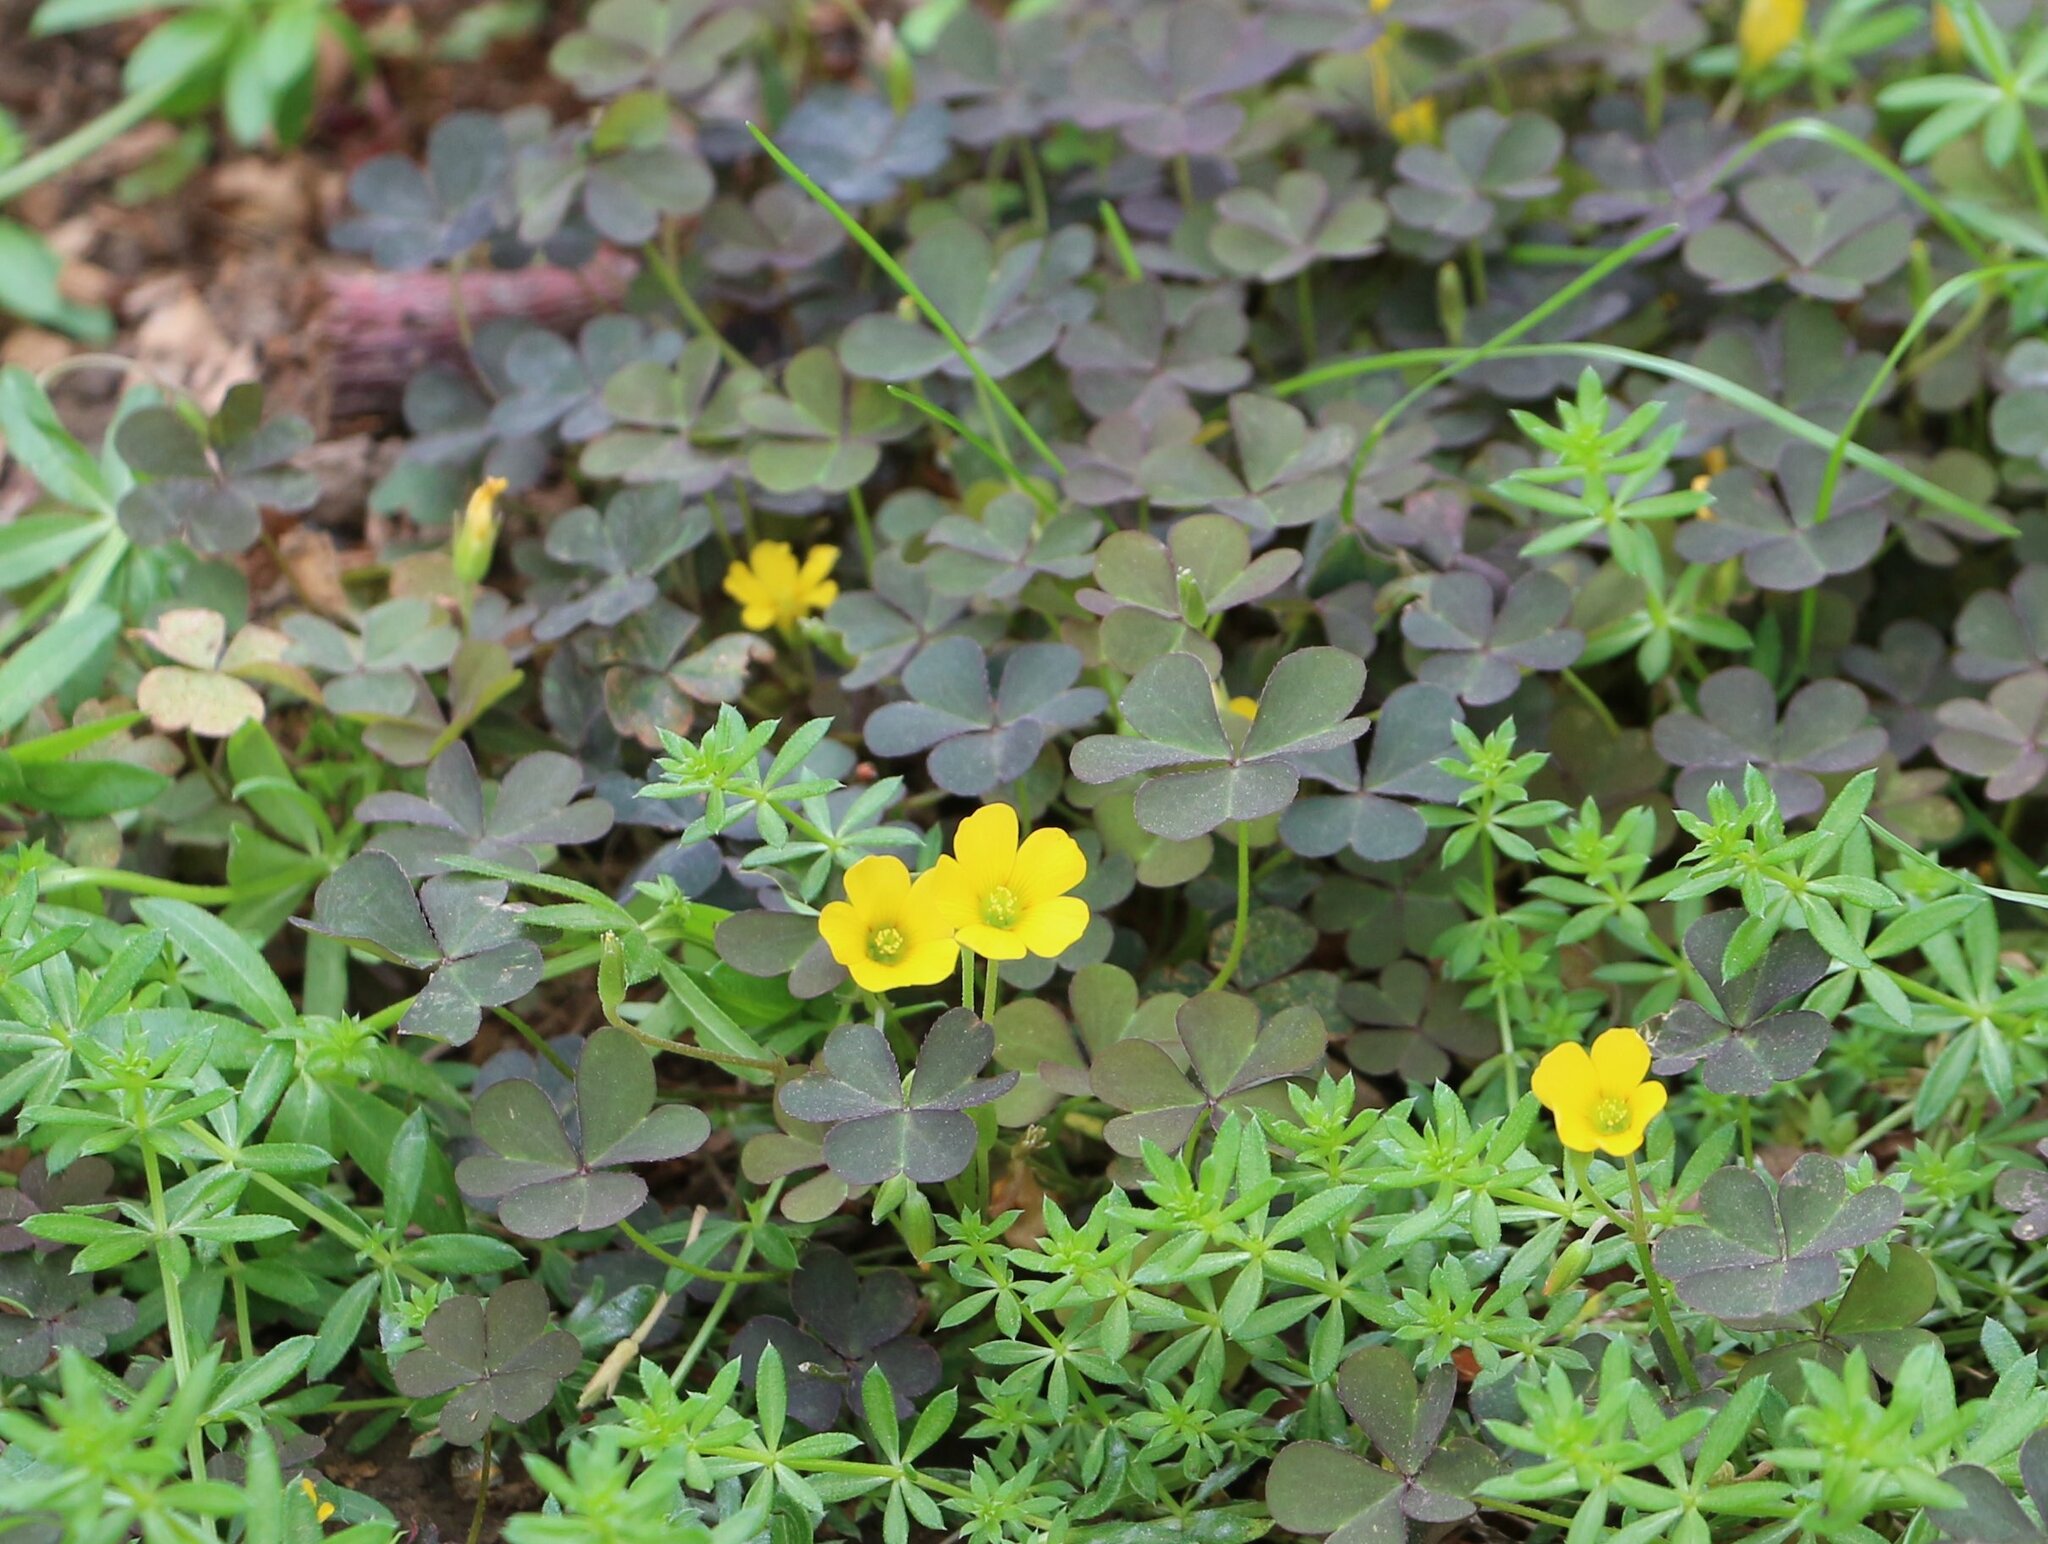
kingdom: Plantae
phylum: Tracheophyta
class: Magnoliopsida
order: Oxalidales
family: Oxalidaceae
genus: Oxalis
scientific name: Oxalis corniculata
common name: Procumbent yellow-sorrel
